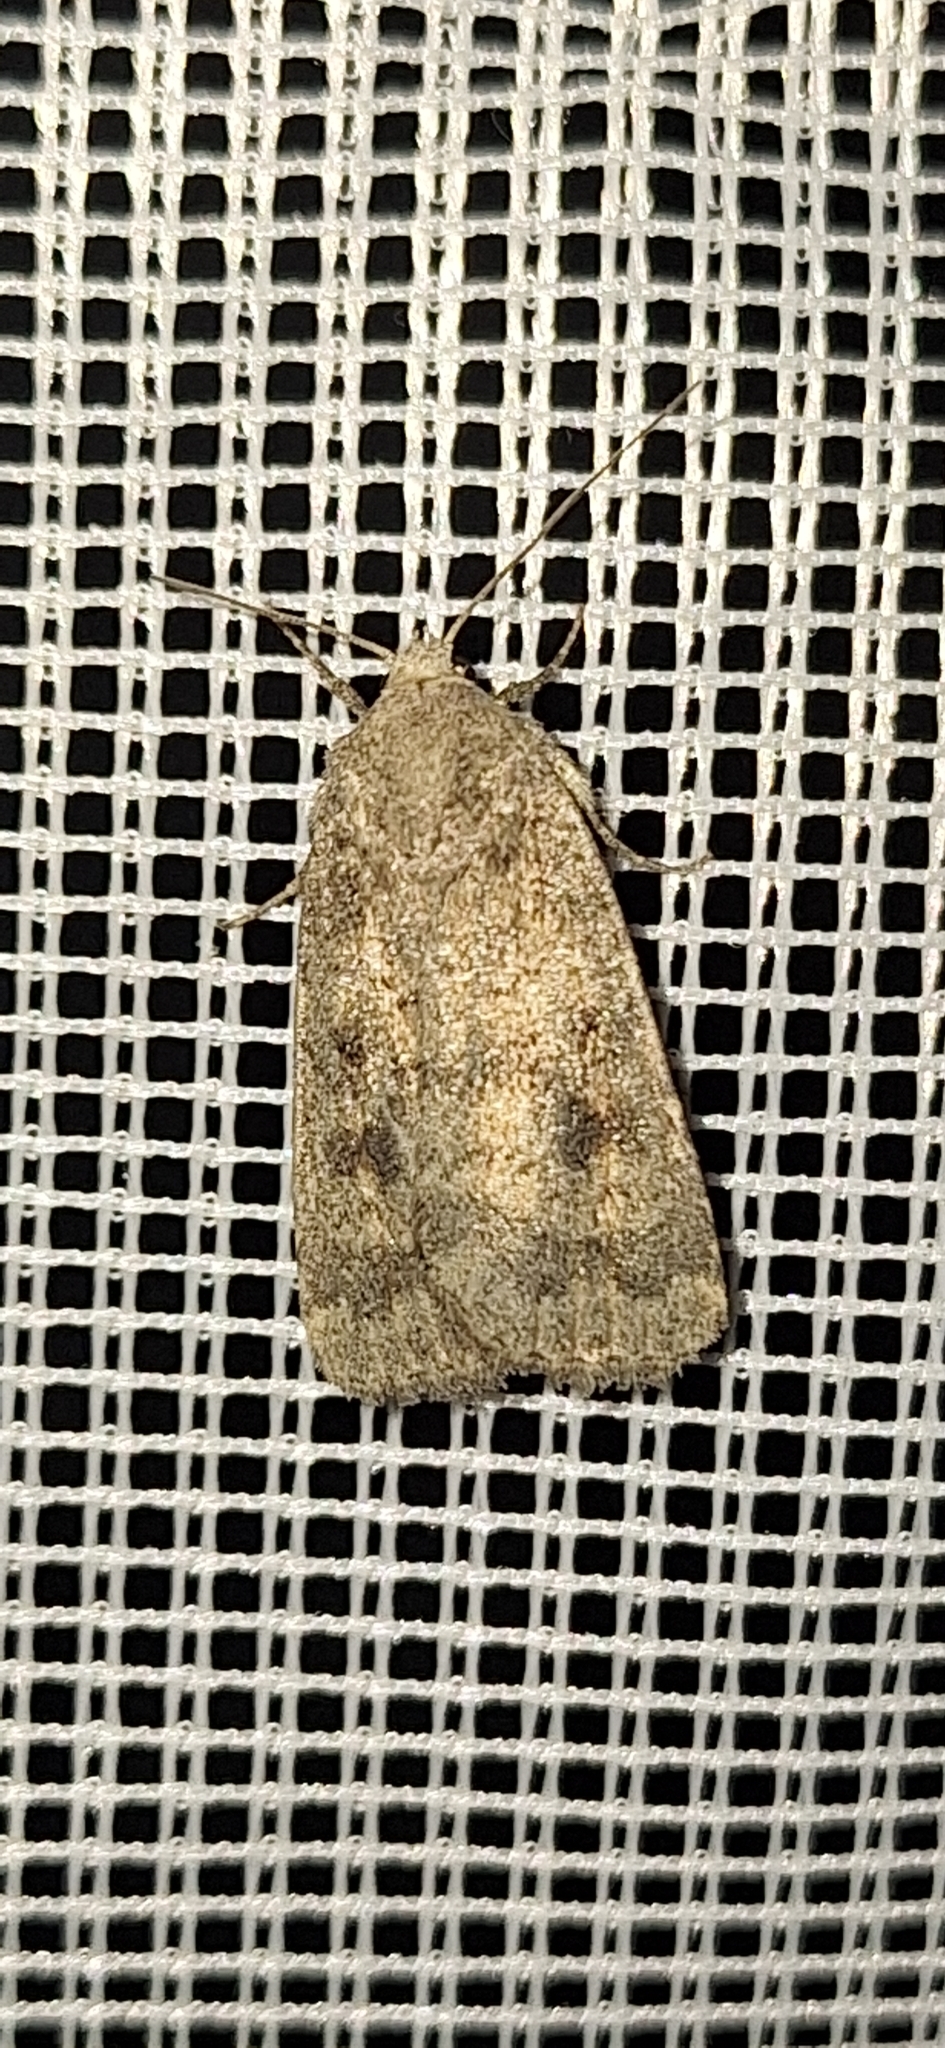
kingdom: Animalia
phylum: Arthropoda
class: Insecta
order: Lepidoptera
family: Noctuidae
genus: Caradrina
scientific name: Caradrina morpheus
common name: Mottled rustic
